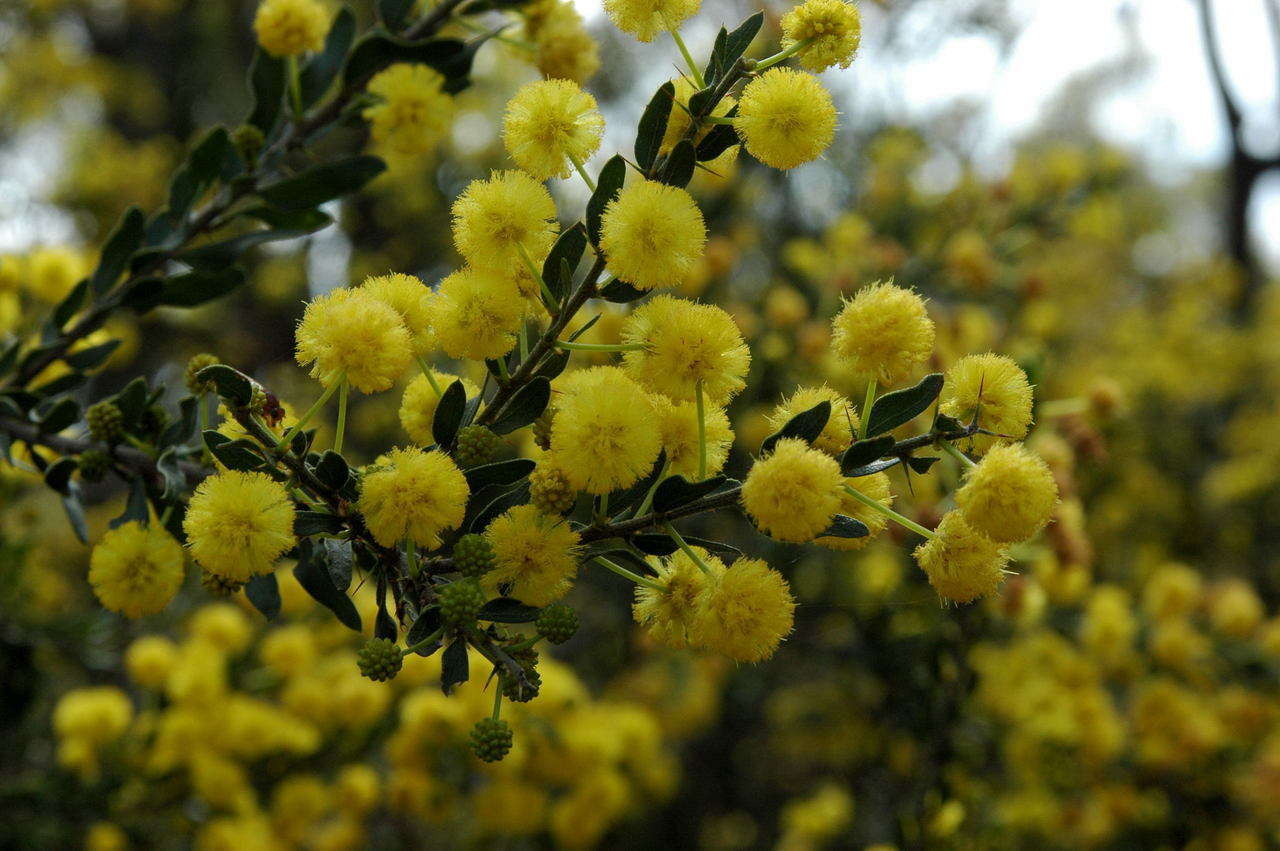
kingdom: Plantae
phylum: Tracheophyta
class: Magnoliopsida
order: Fabales
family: Fabaceae
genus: Acacia
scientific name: Acacia paradoxa
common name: Paradox acacia
